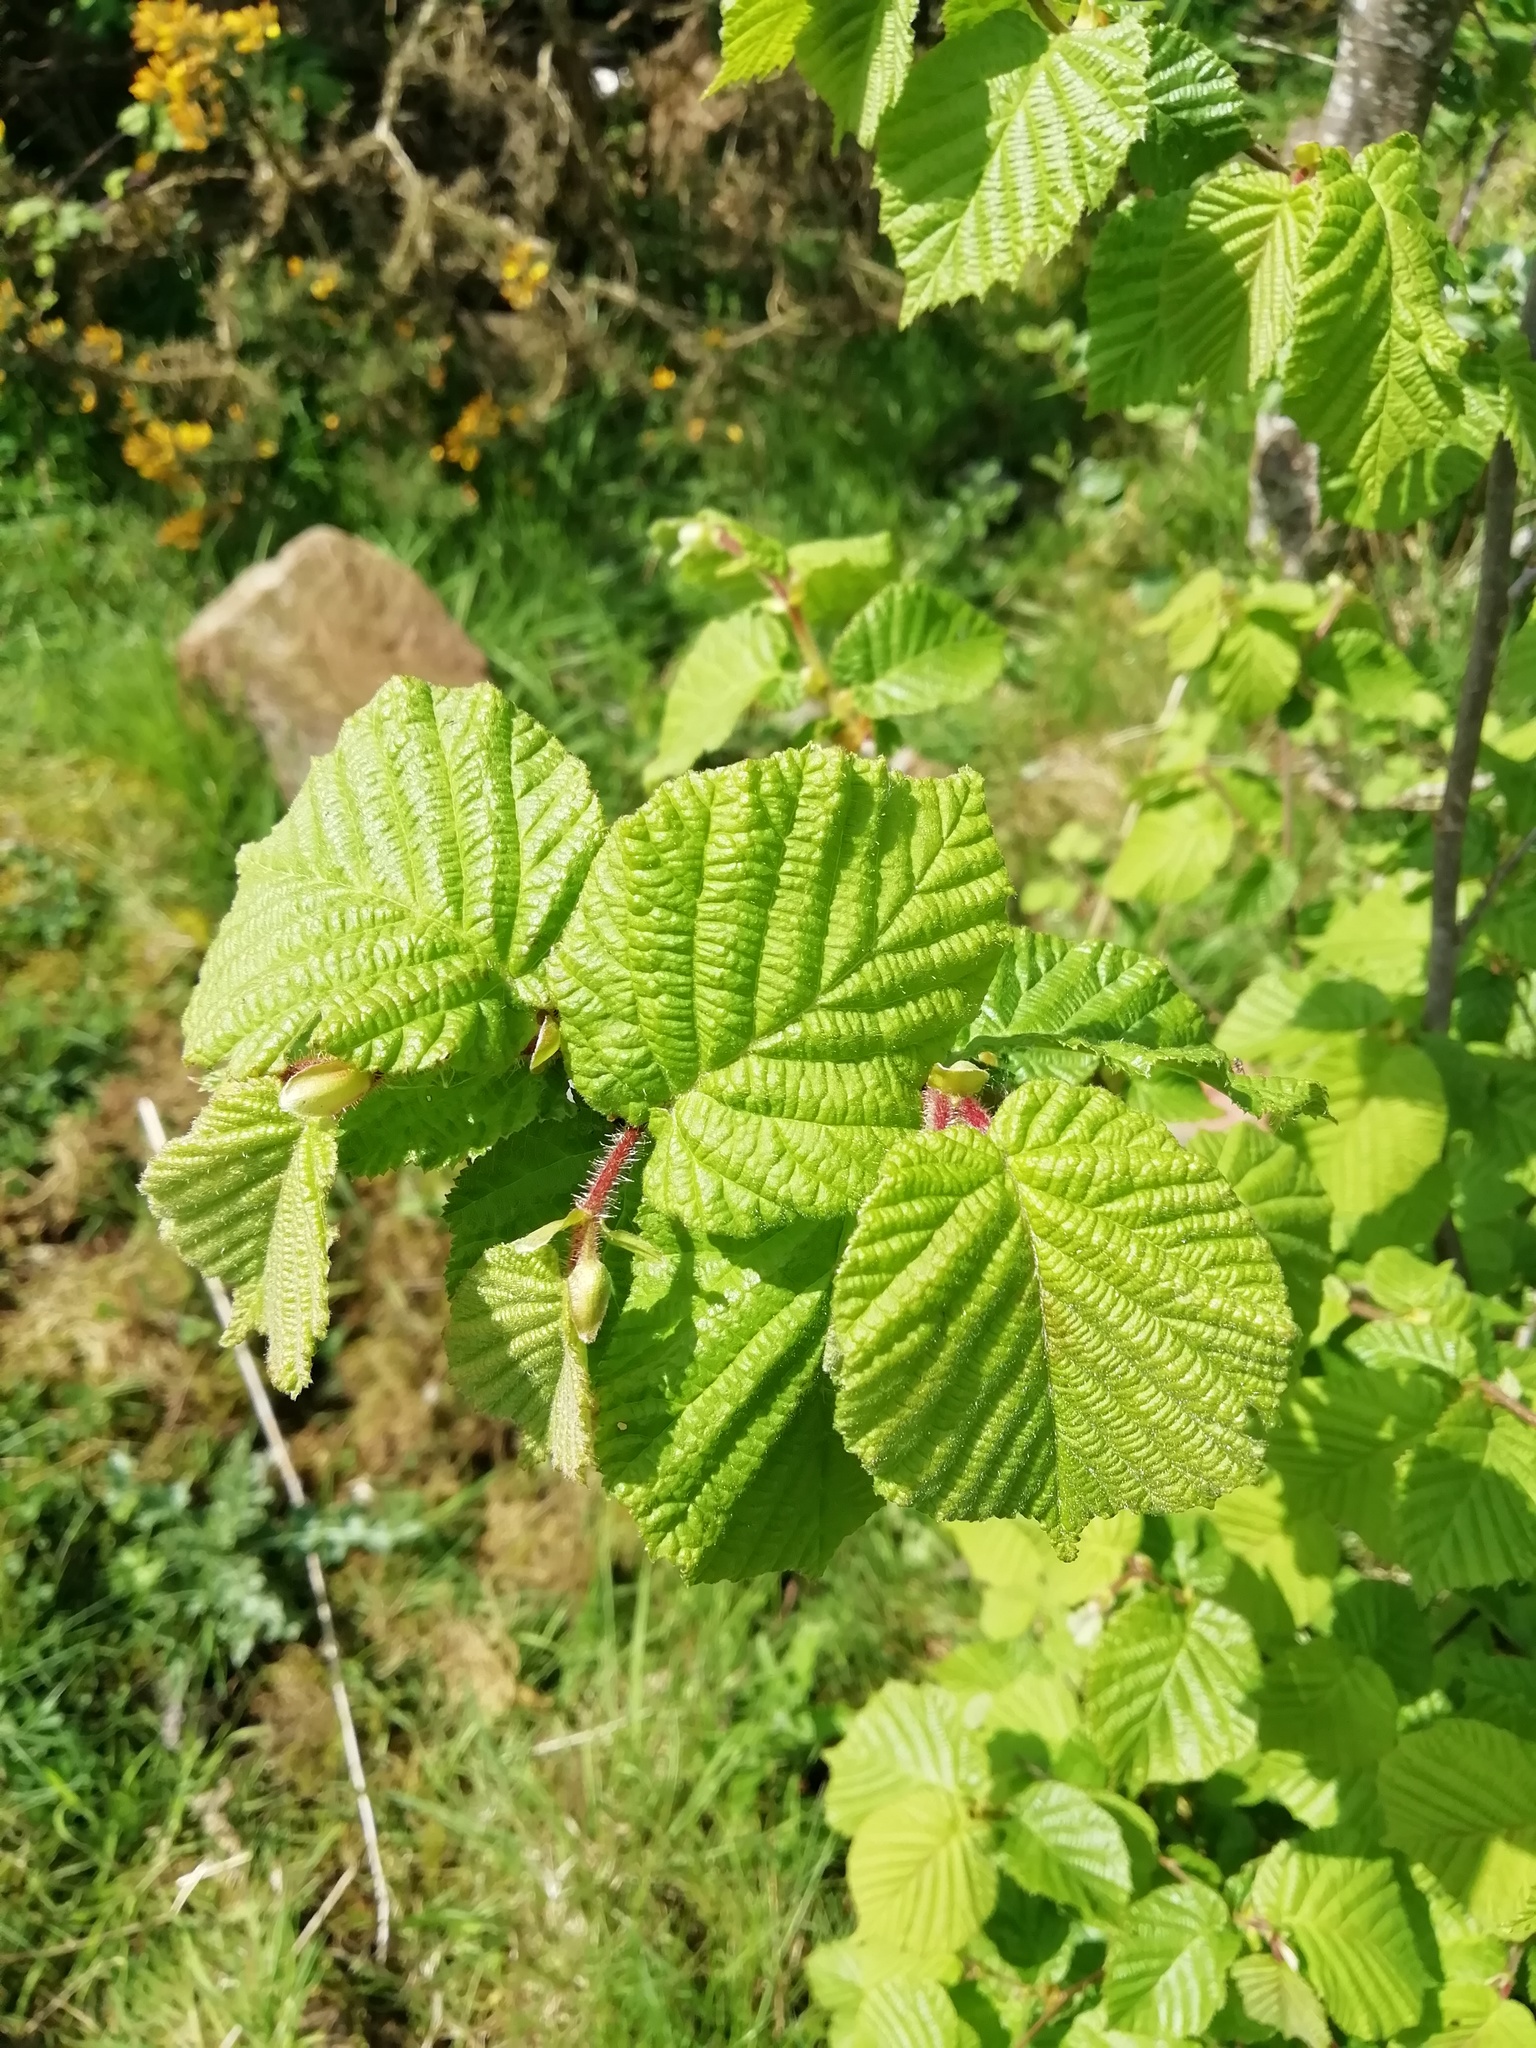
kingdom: Plantae
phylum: Tracheophyta
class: Magnoliopsida
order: Fagales
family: Betulaceae
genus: Corylus
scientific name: Corylus avellana
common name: European hazel
